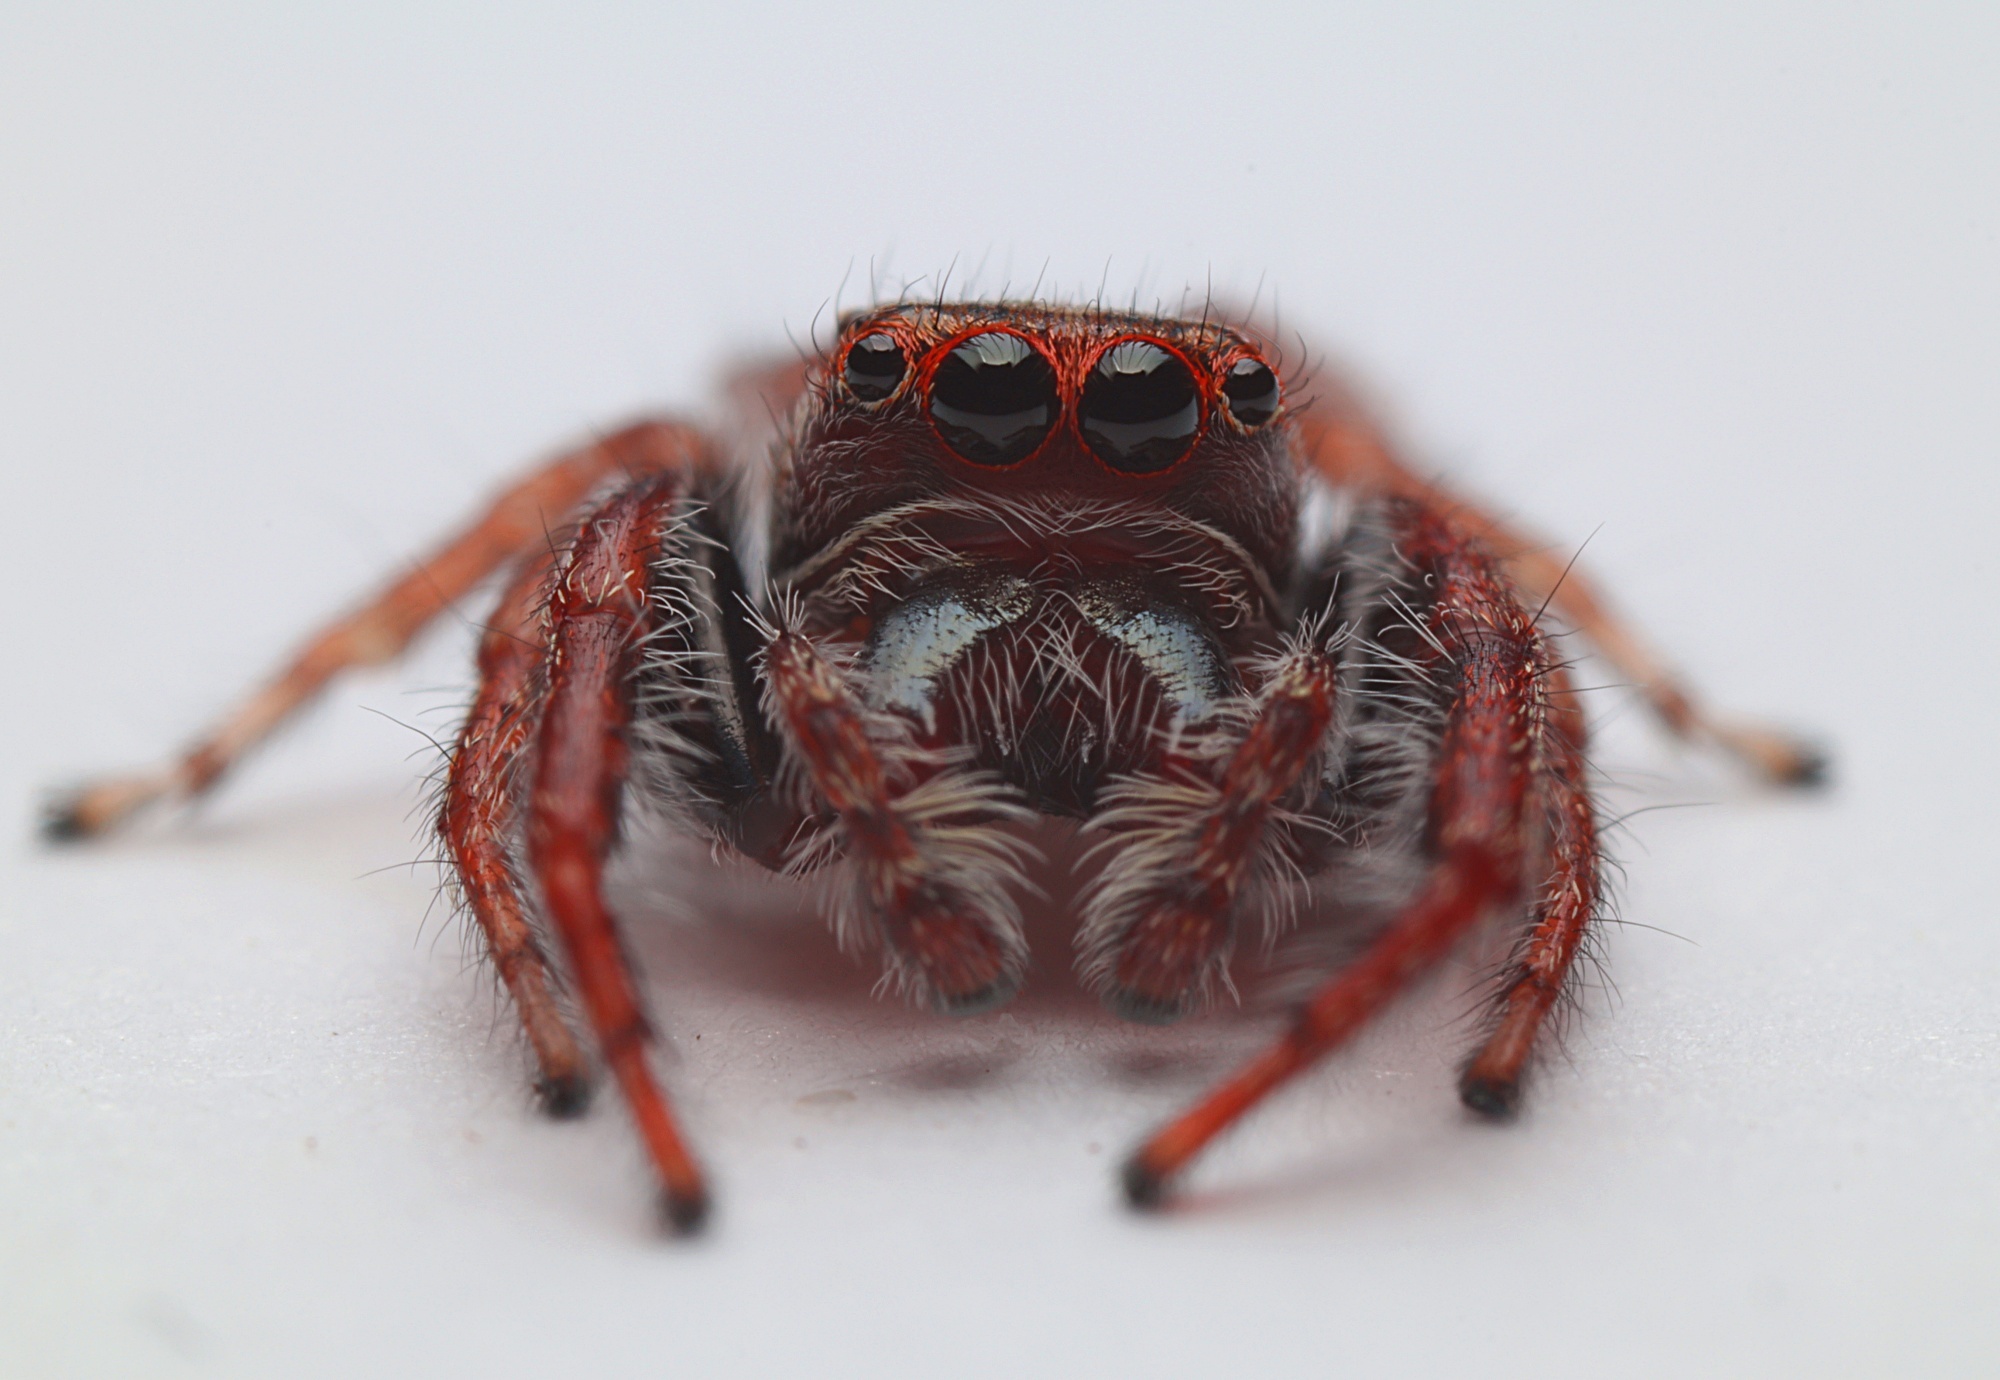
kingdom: Animalia
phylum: Arthropoda
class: Arachnida
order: Araneae
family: Salticidae
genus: Opisthoncus
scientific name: Opisthoncus polyphemus
